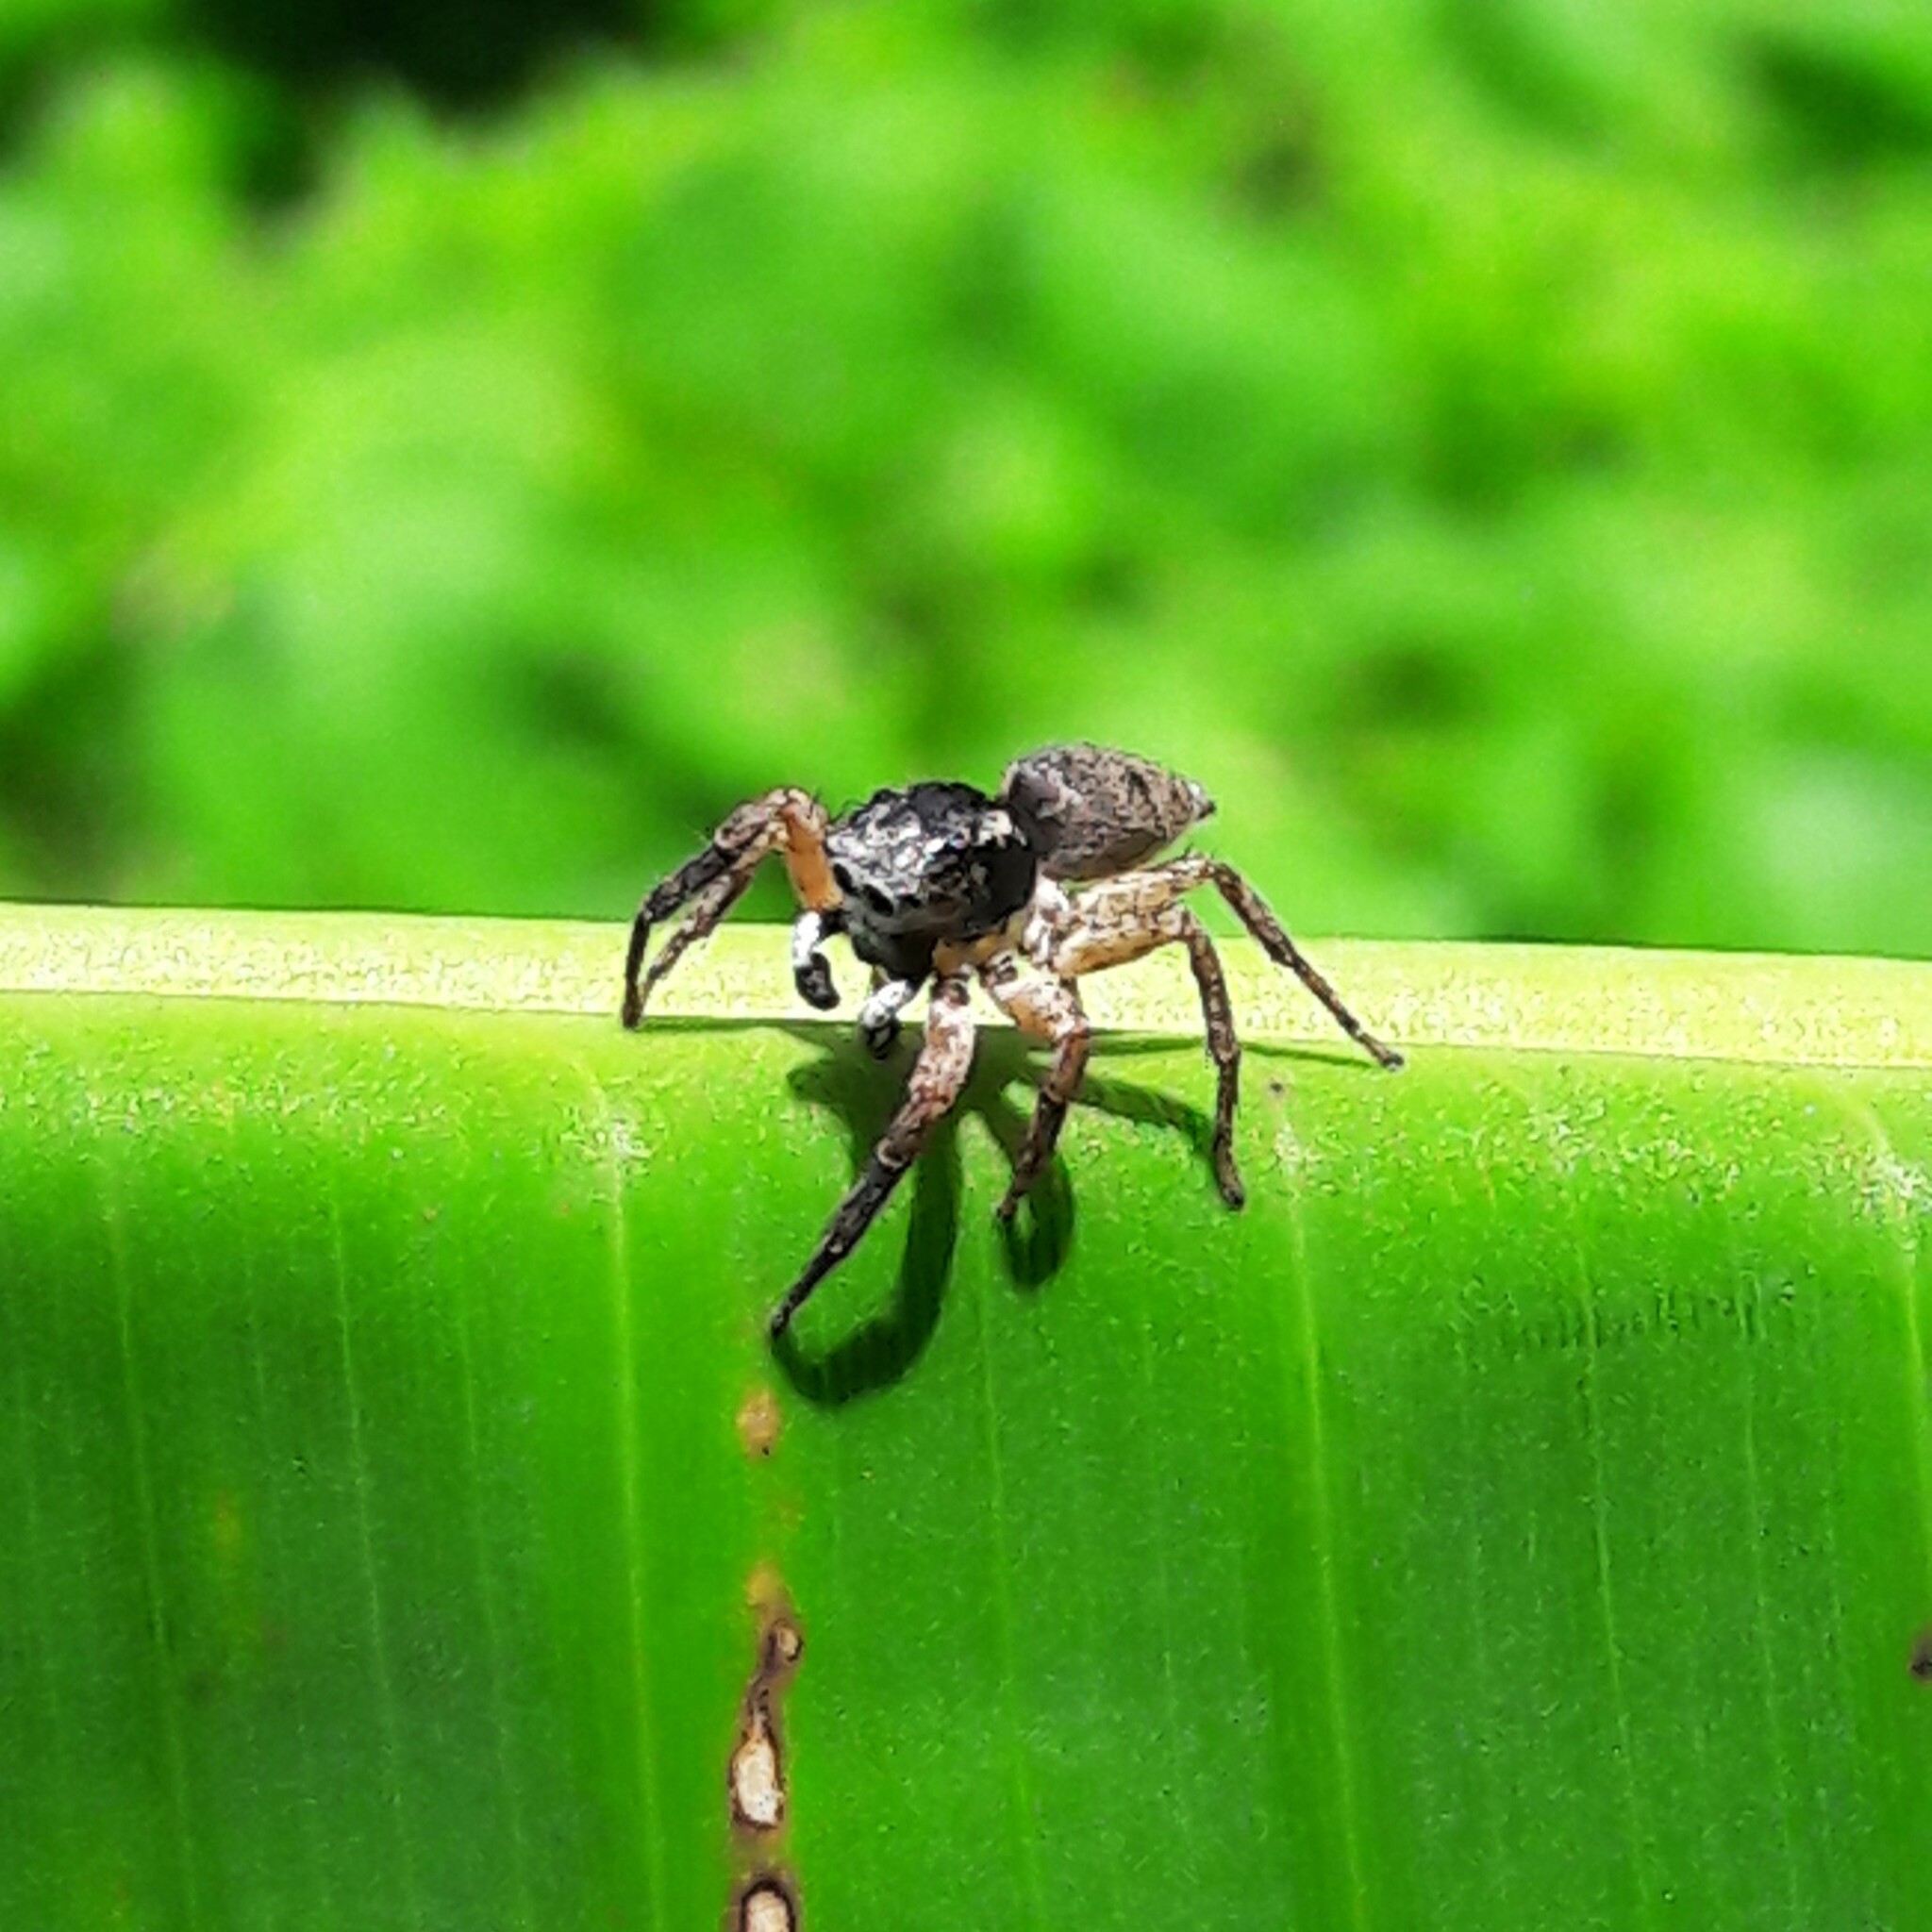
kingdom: Animalia
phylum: Arthropoda
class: Arachnida
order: Araneae
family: Salticidae
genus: Sumampattus
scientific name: Sumampattus quinqueradiatus
